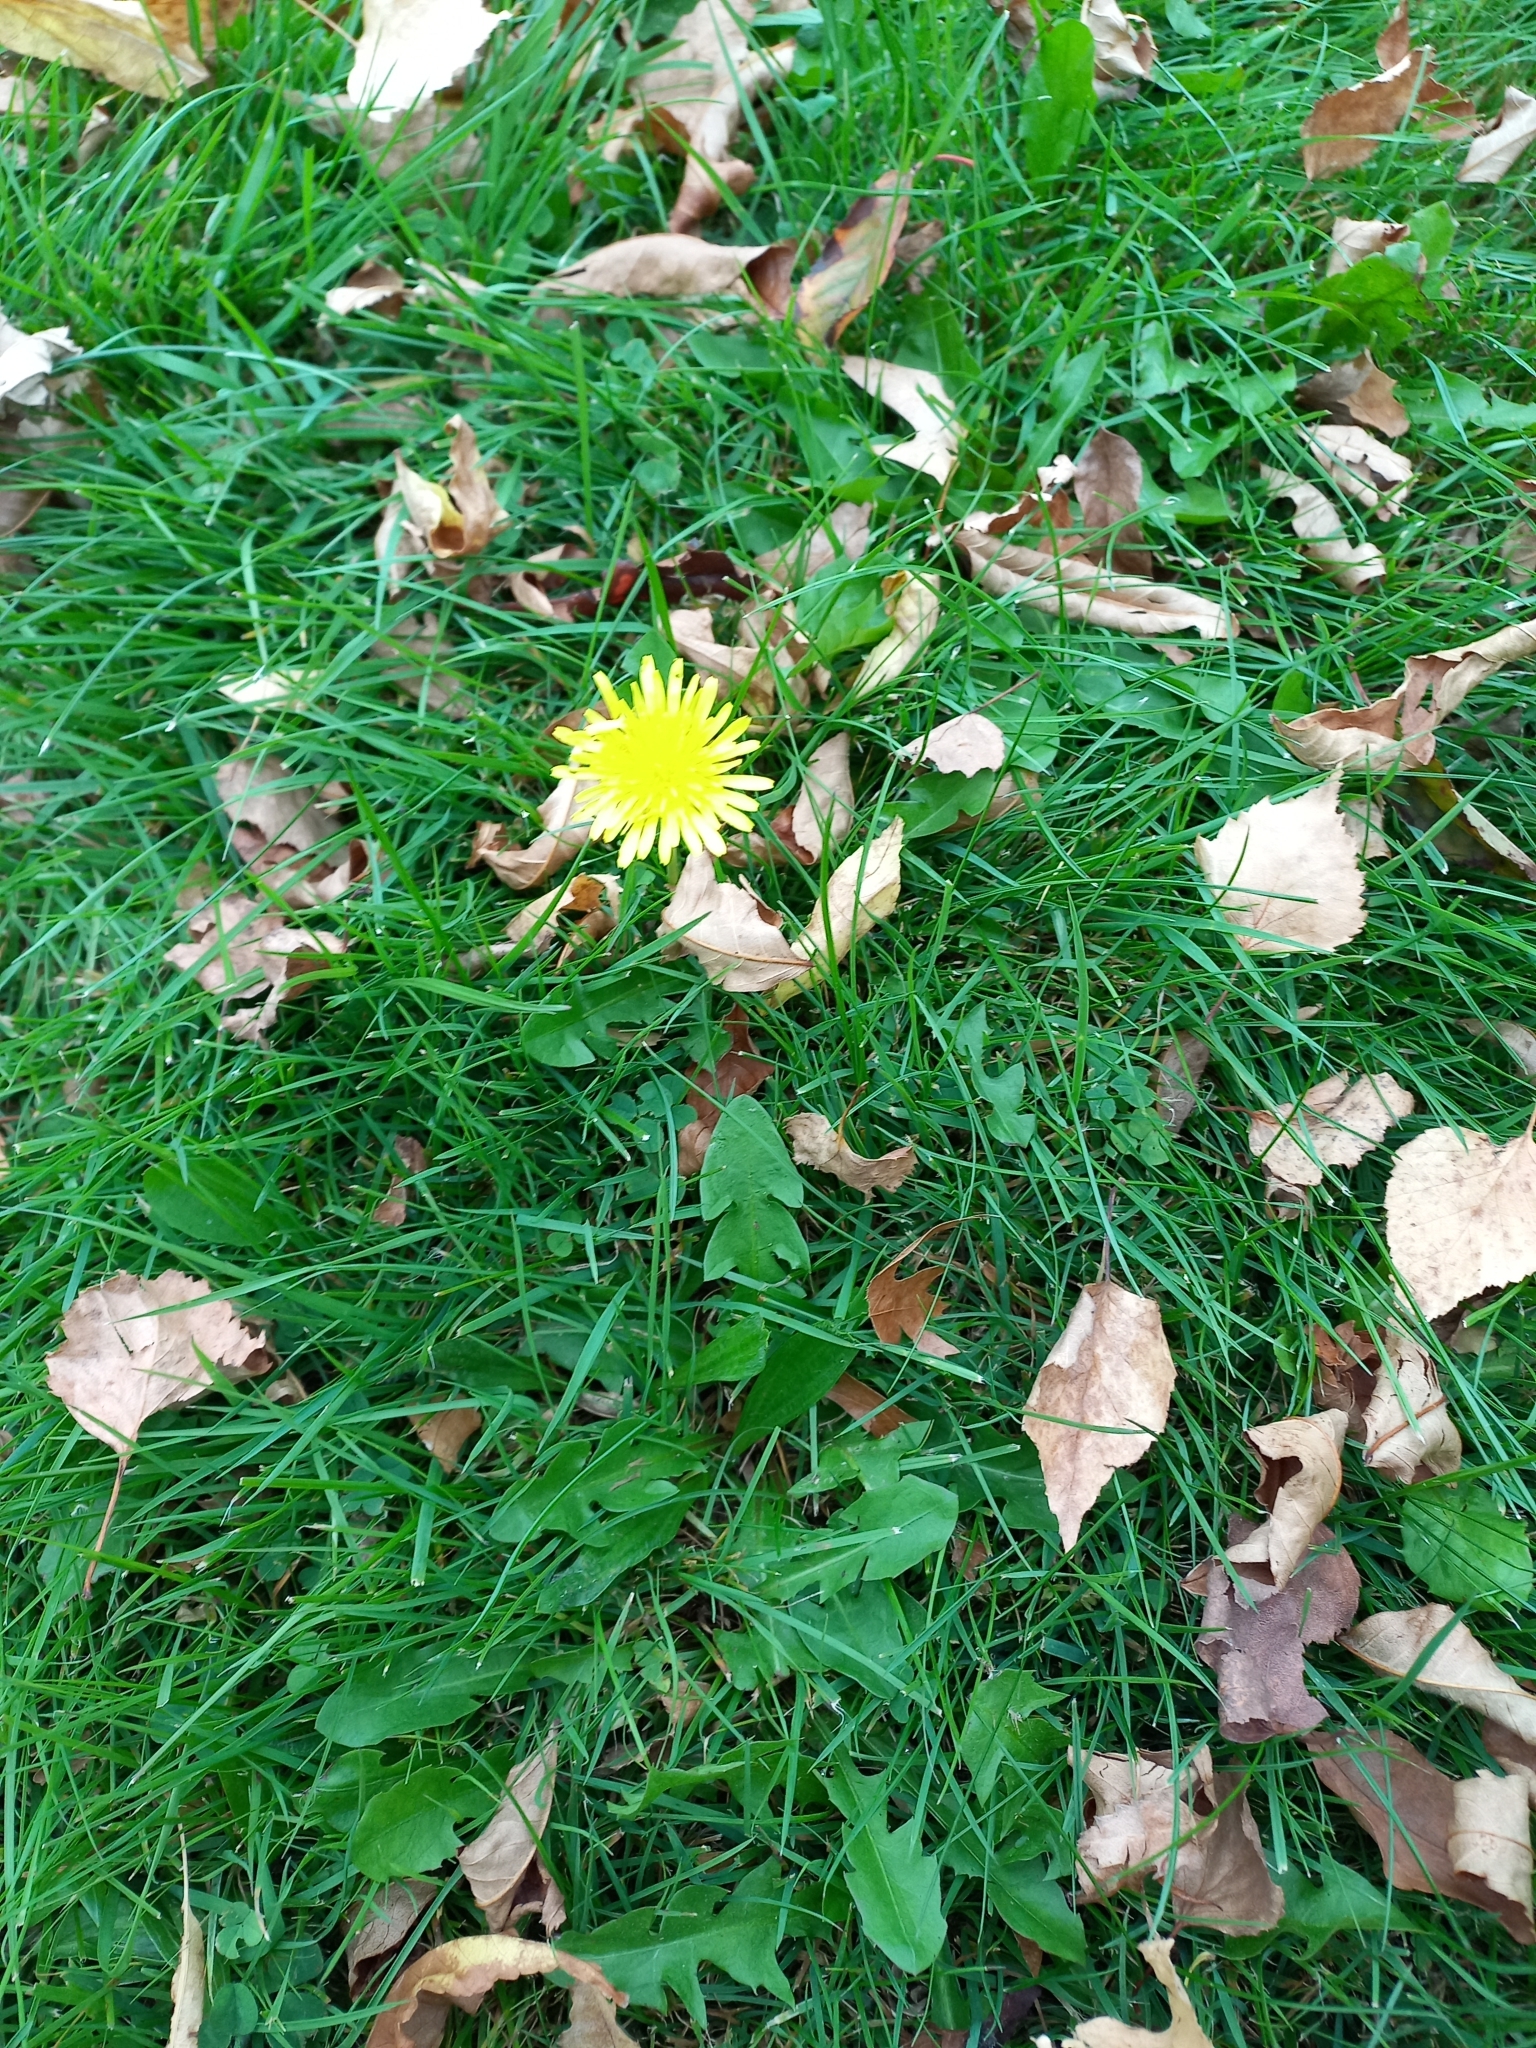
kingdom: Plantae
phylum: Tracheophyta
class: Magnoliopsida
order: Asterales
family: Asteraceae
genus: Taraxacum
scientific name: Taraxacum officinale
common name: Common dandelion
